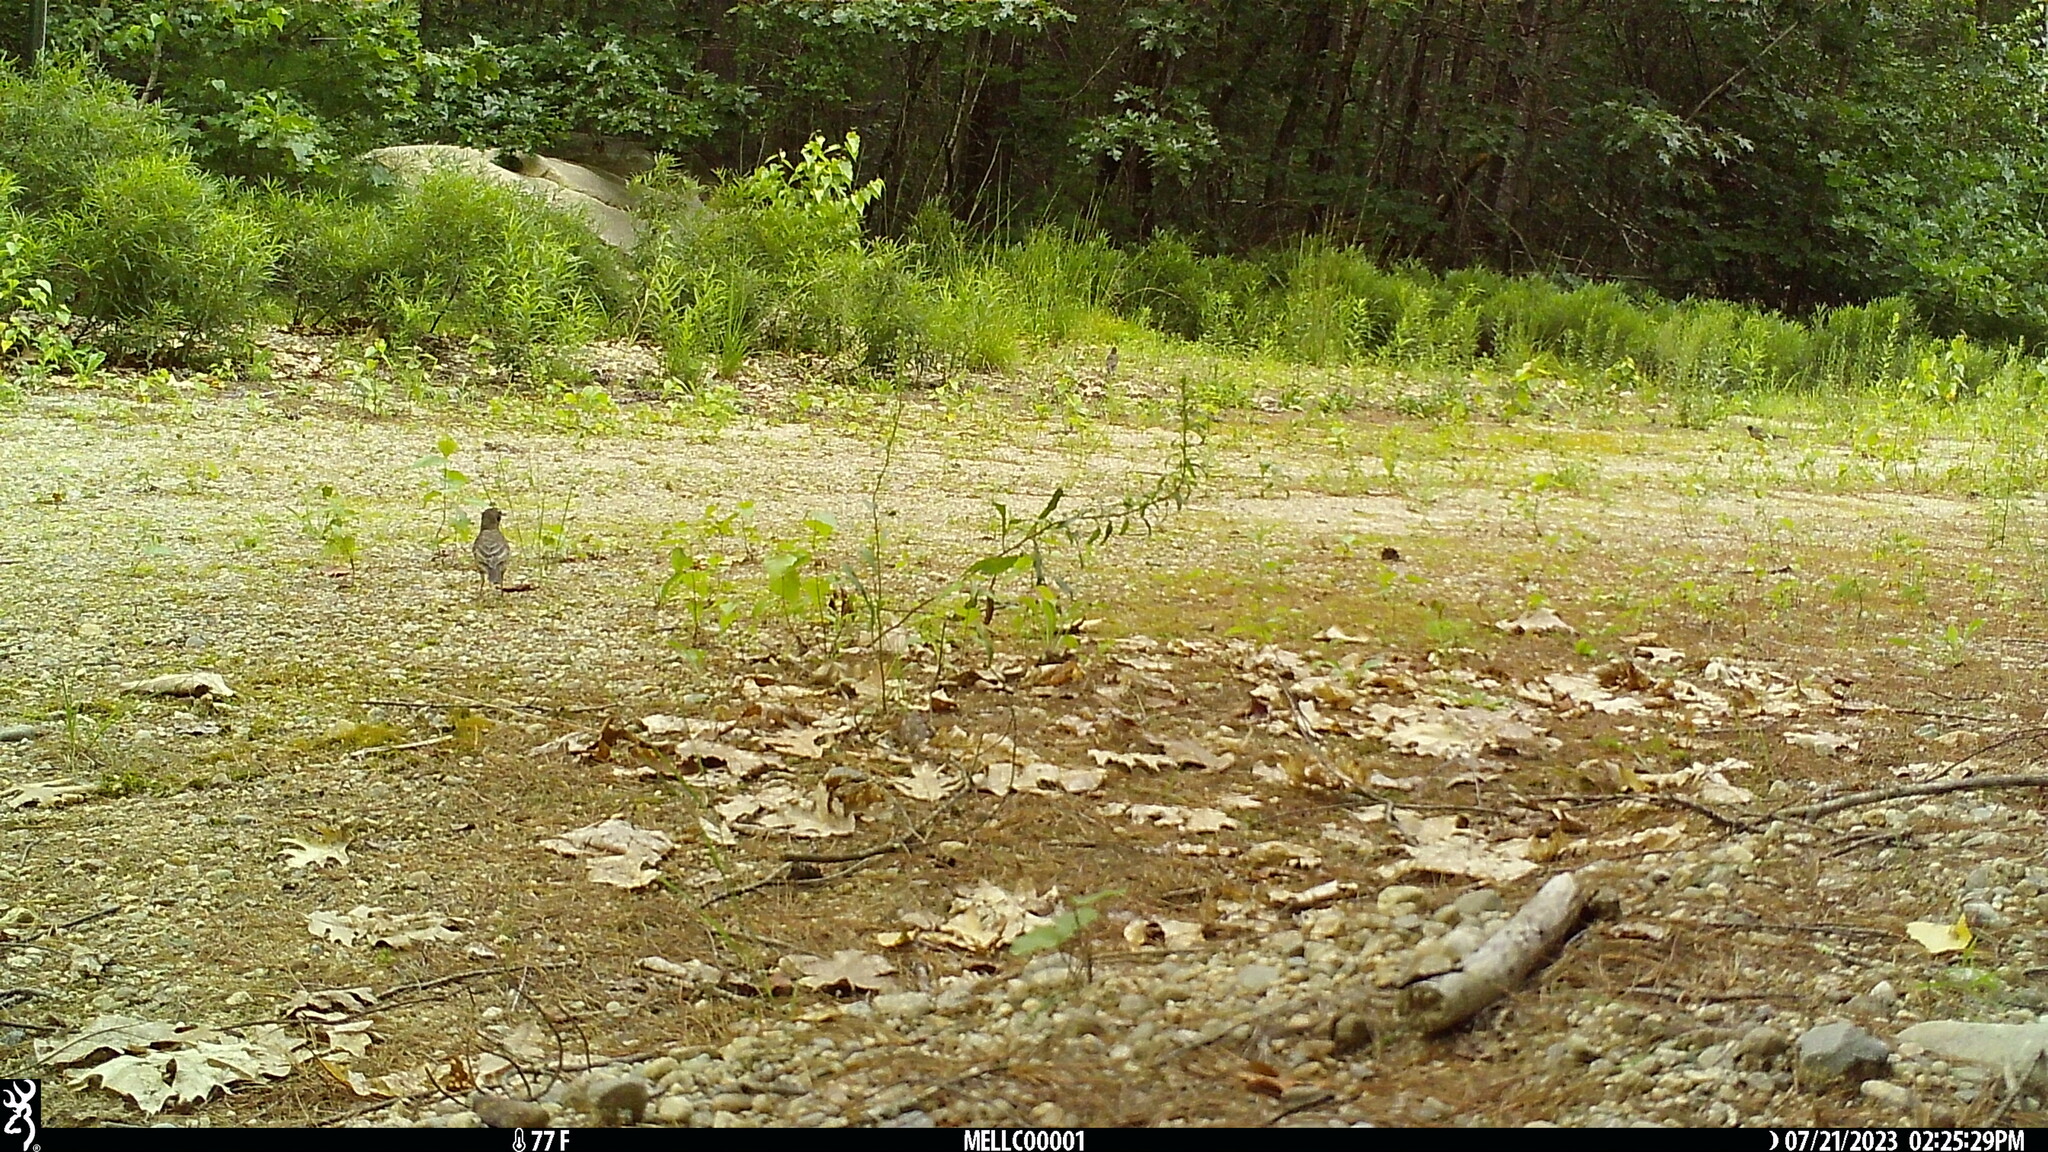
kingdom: Animalia
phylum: Chordata
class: Aves
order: Passeriformes
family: Turdidae
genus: Turdus
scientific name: Turdus migratorius
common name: American robin
